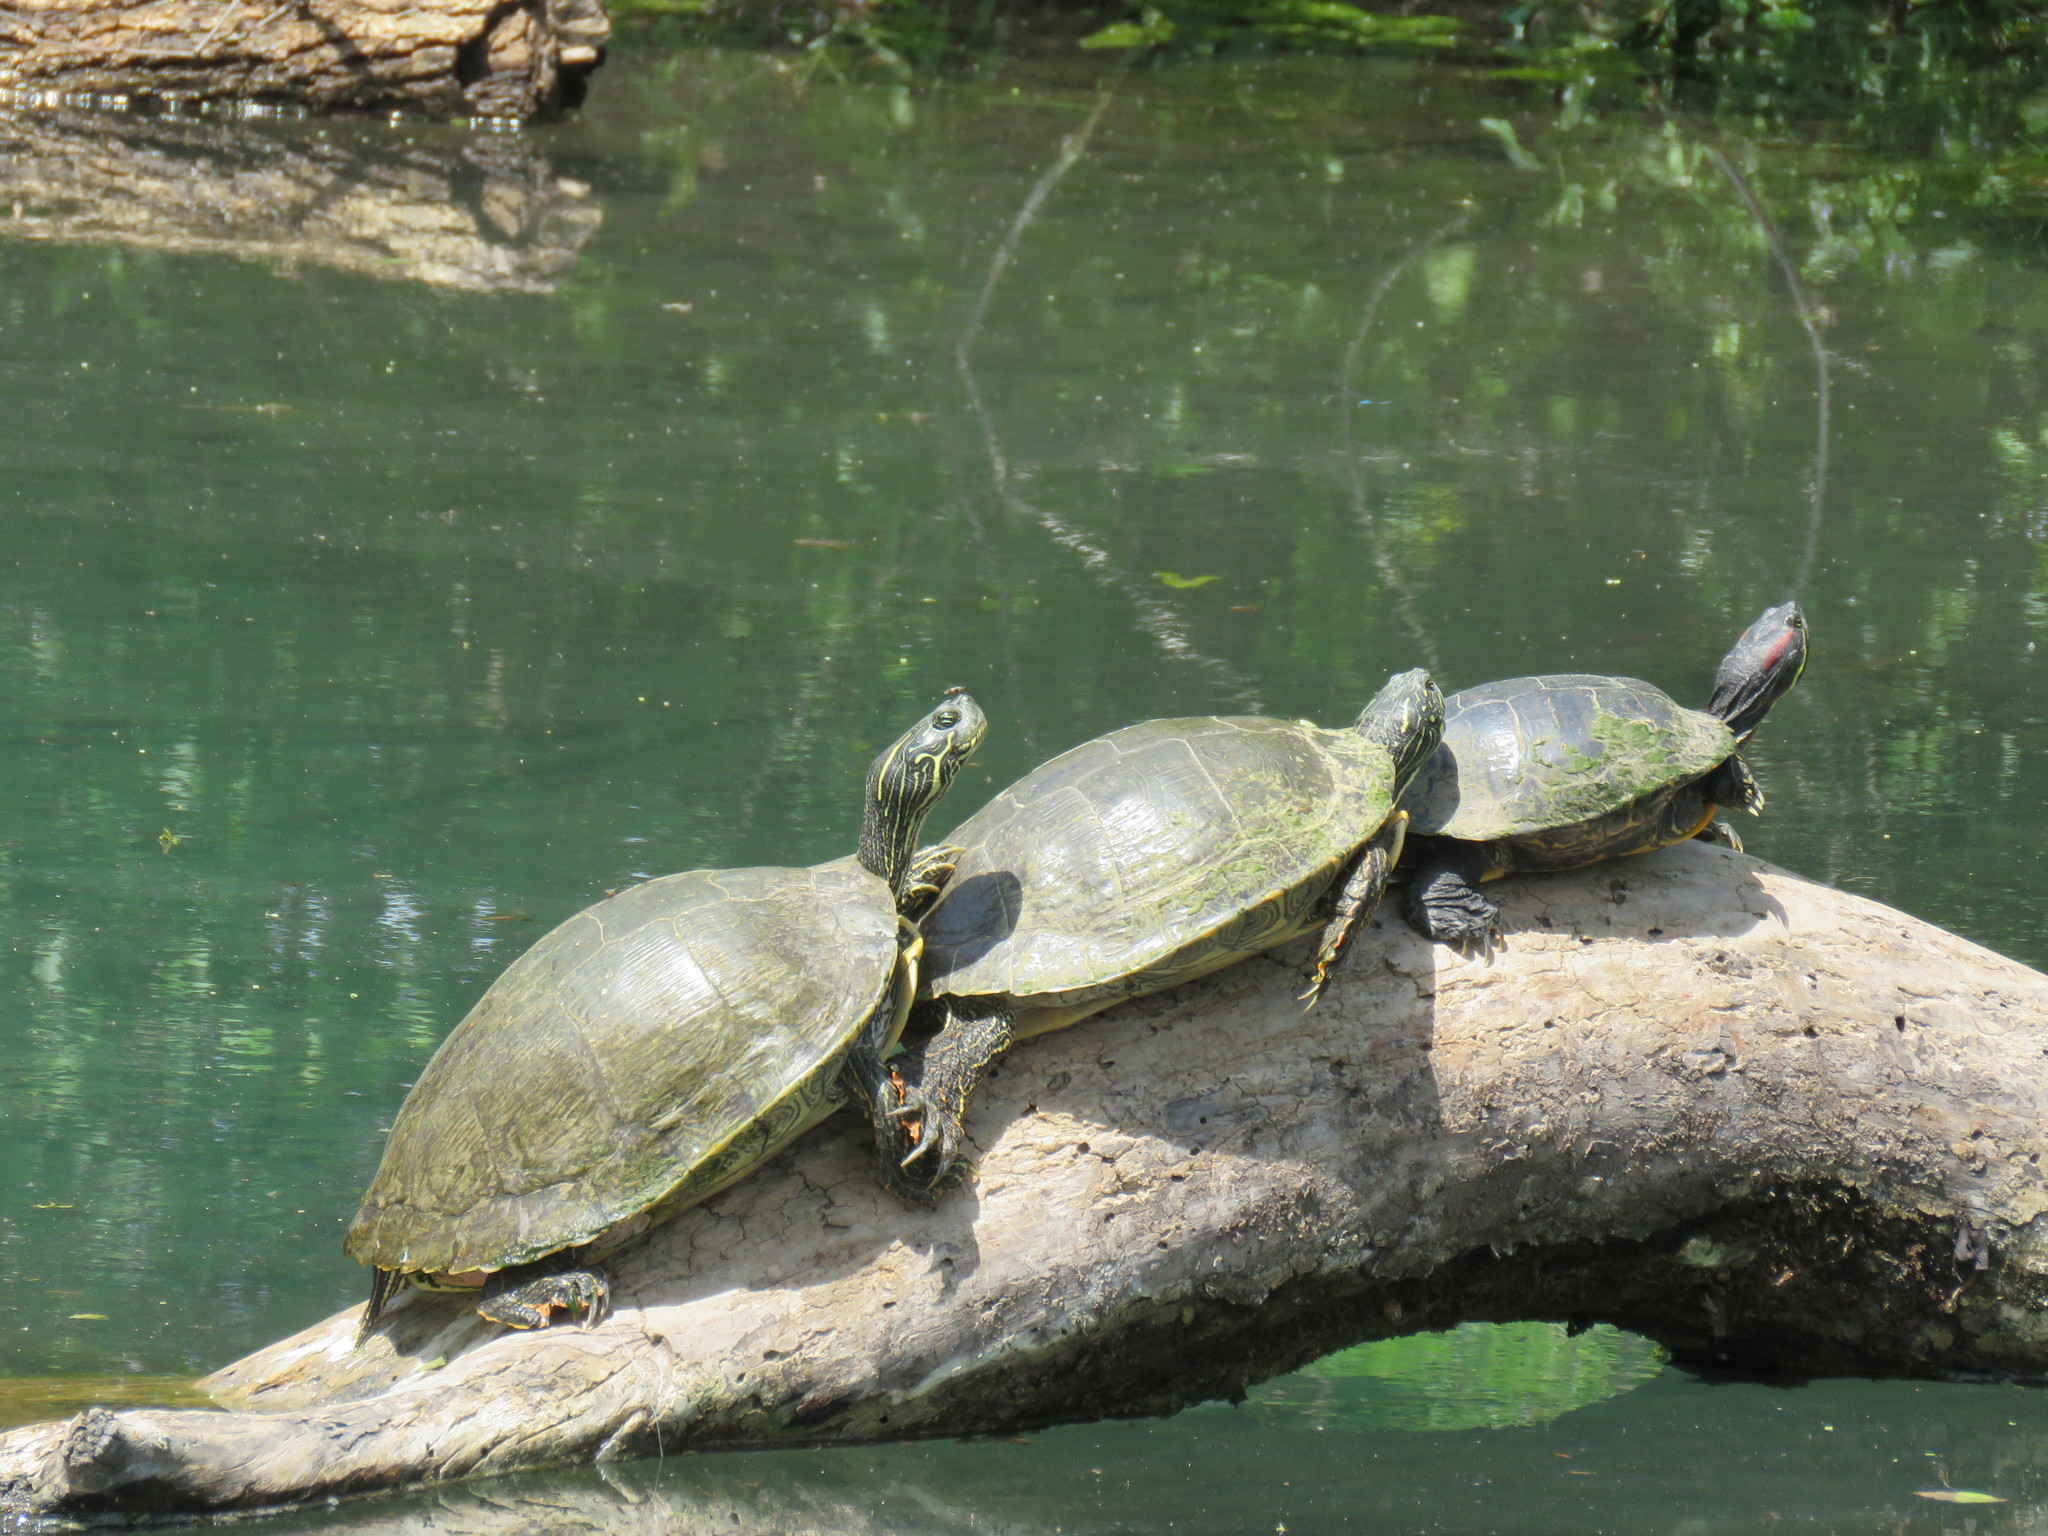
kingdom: Animalia
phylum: Chordata
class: Testudines
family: Emydidae
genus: Trachemys
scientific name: Trachemys scripta
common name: Slider
